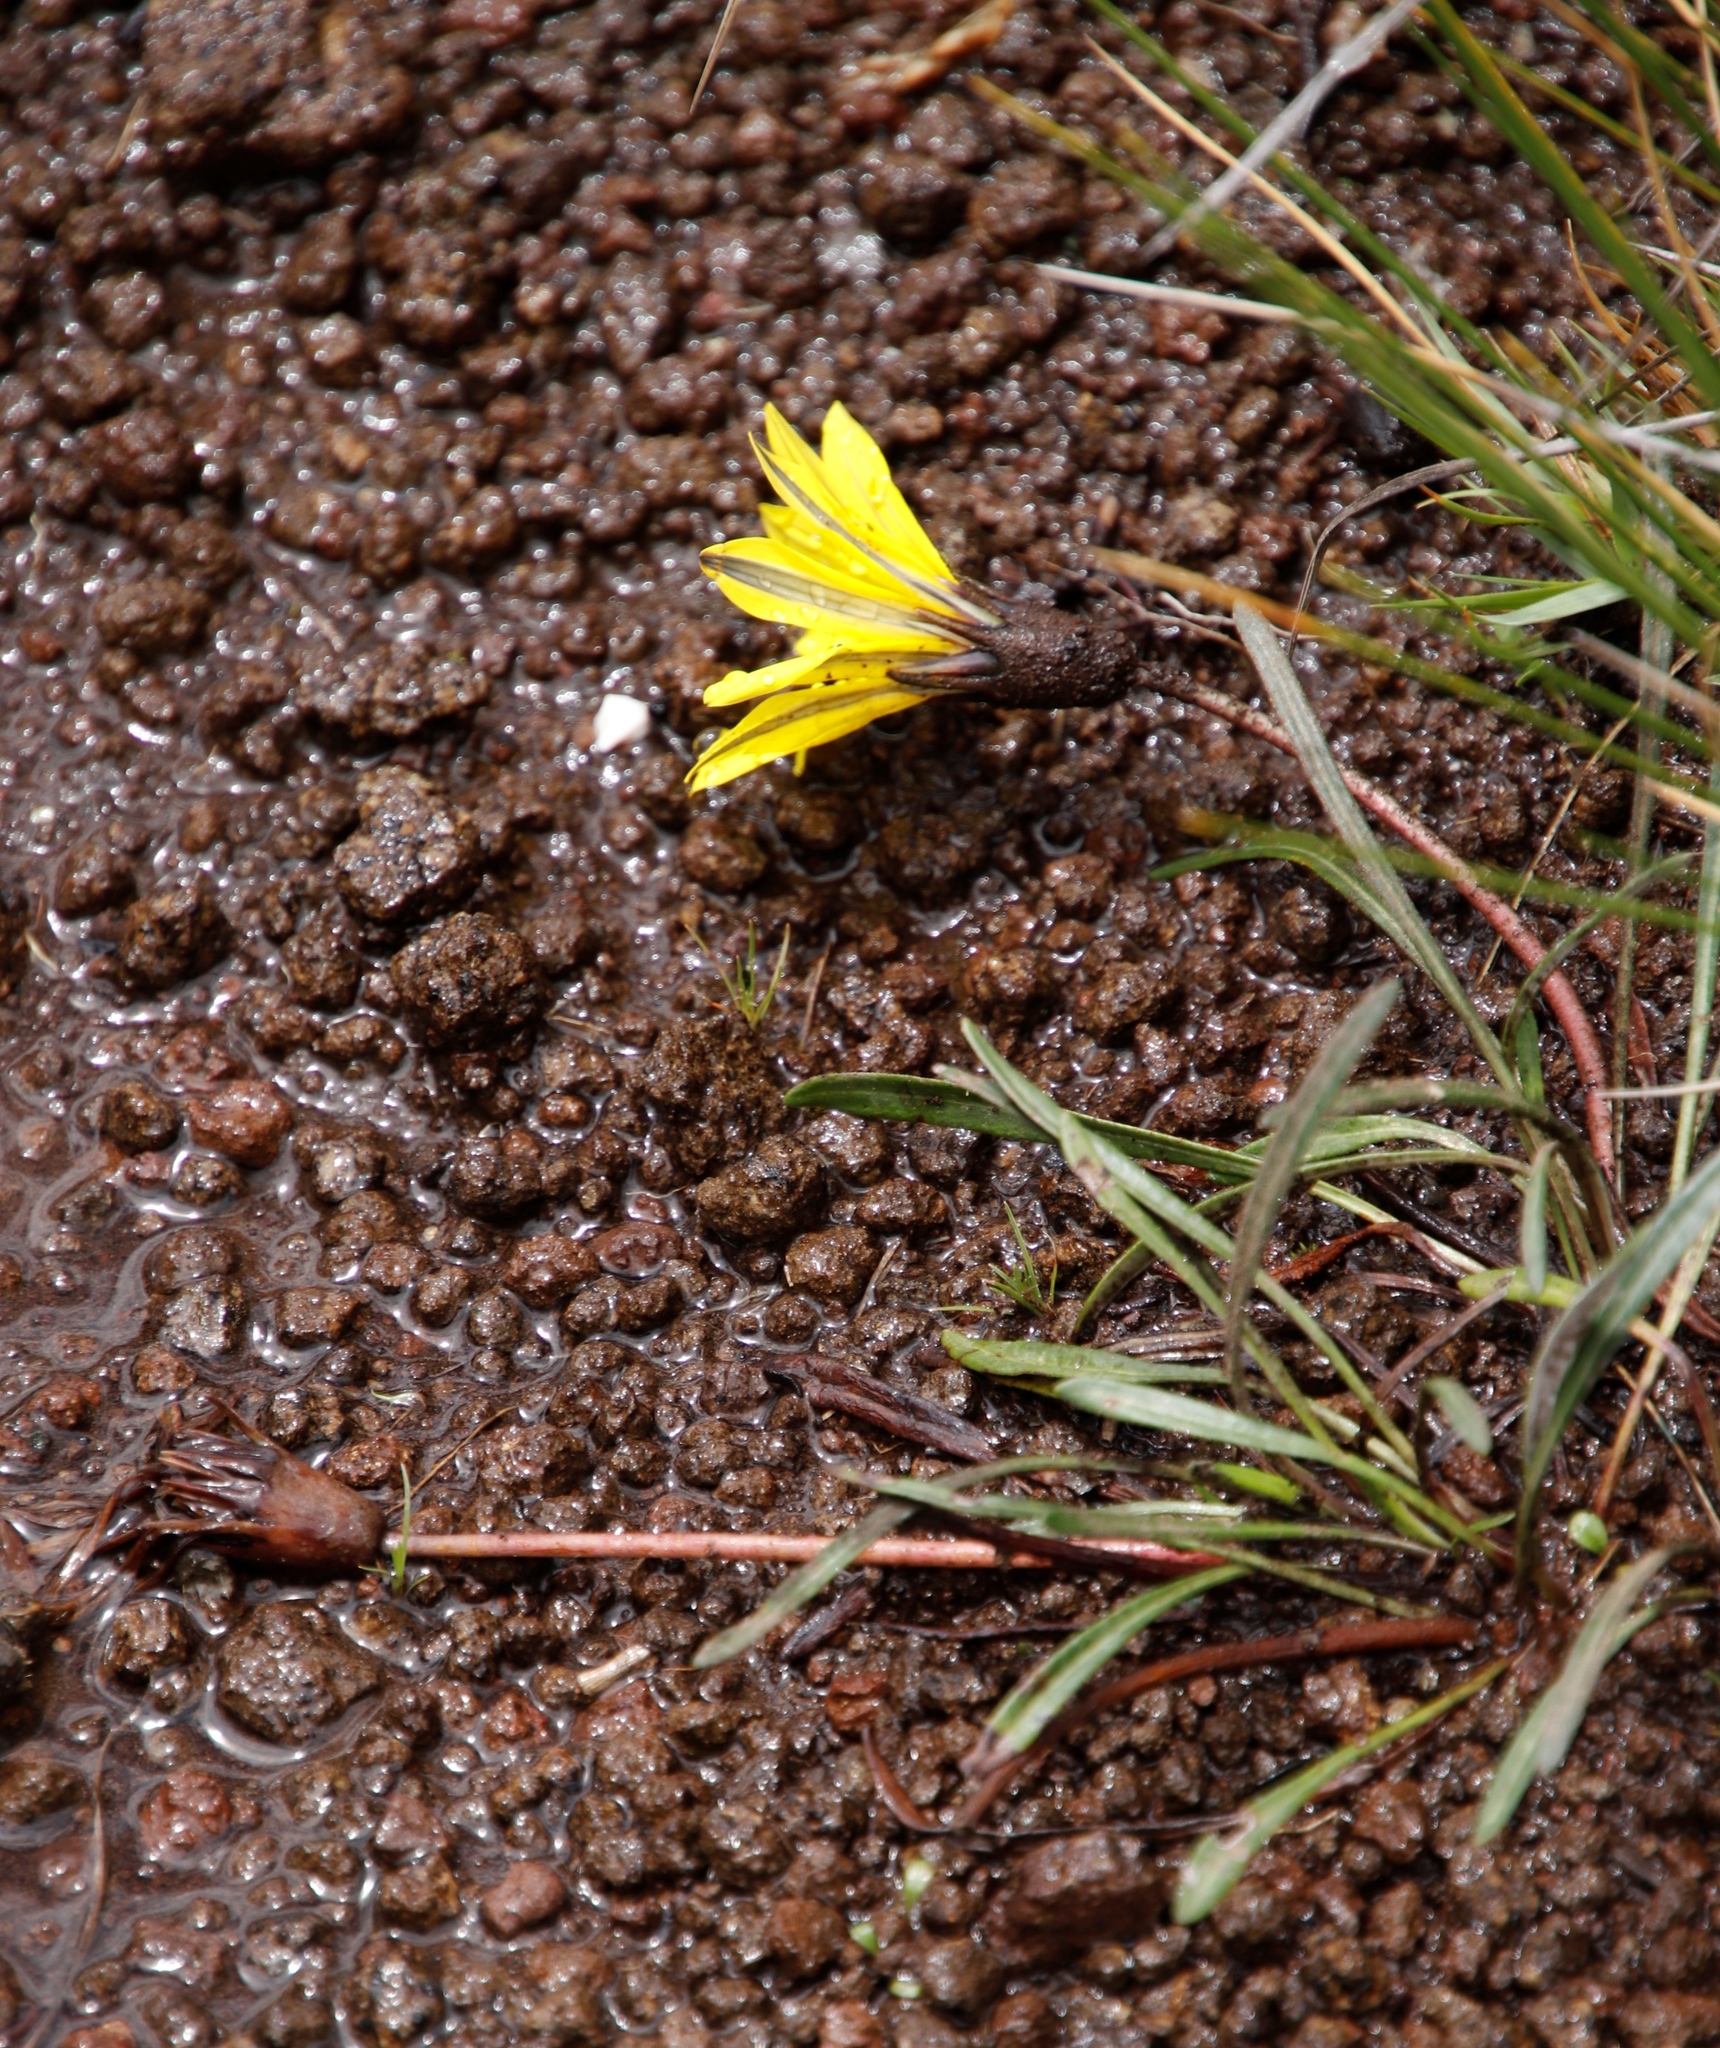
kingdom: Plantae
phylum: Tracheophyta
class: Magnoliopsida
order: Asterales
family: Asteraceae
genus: Gazania
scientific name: Gazania krebsiana
